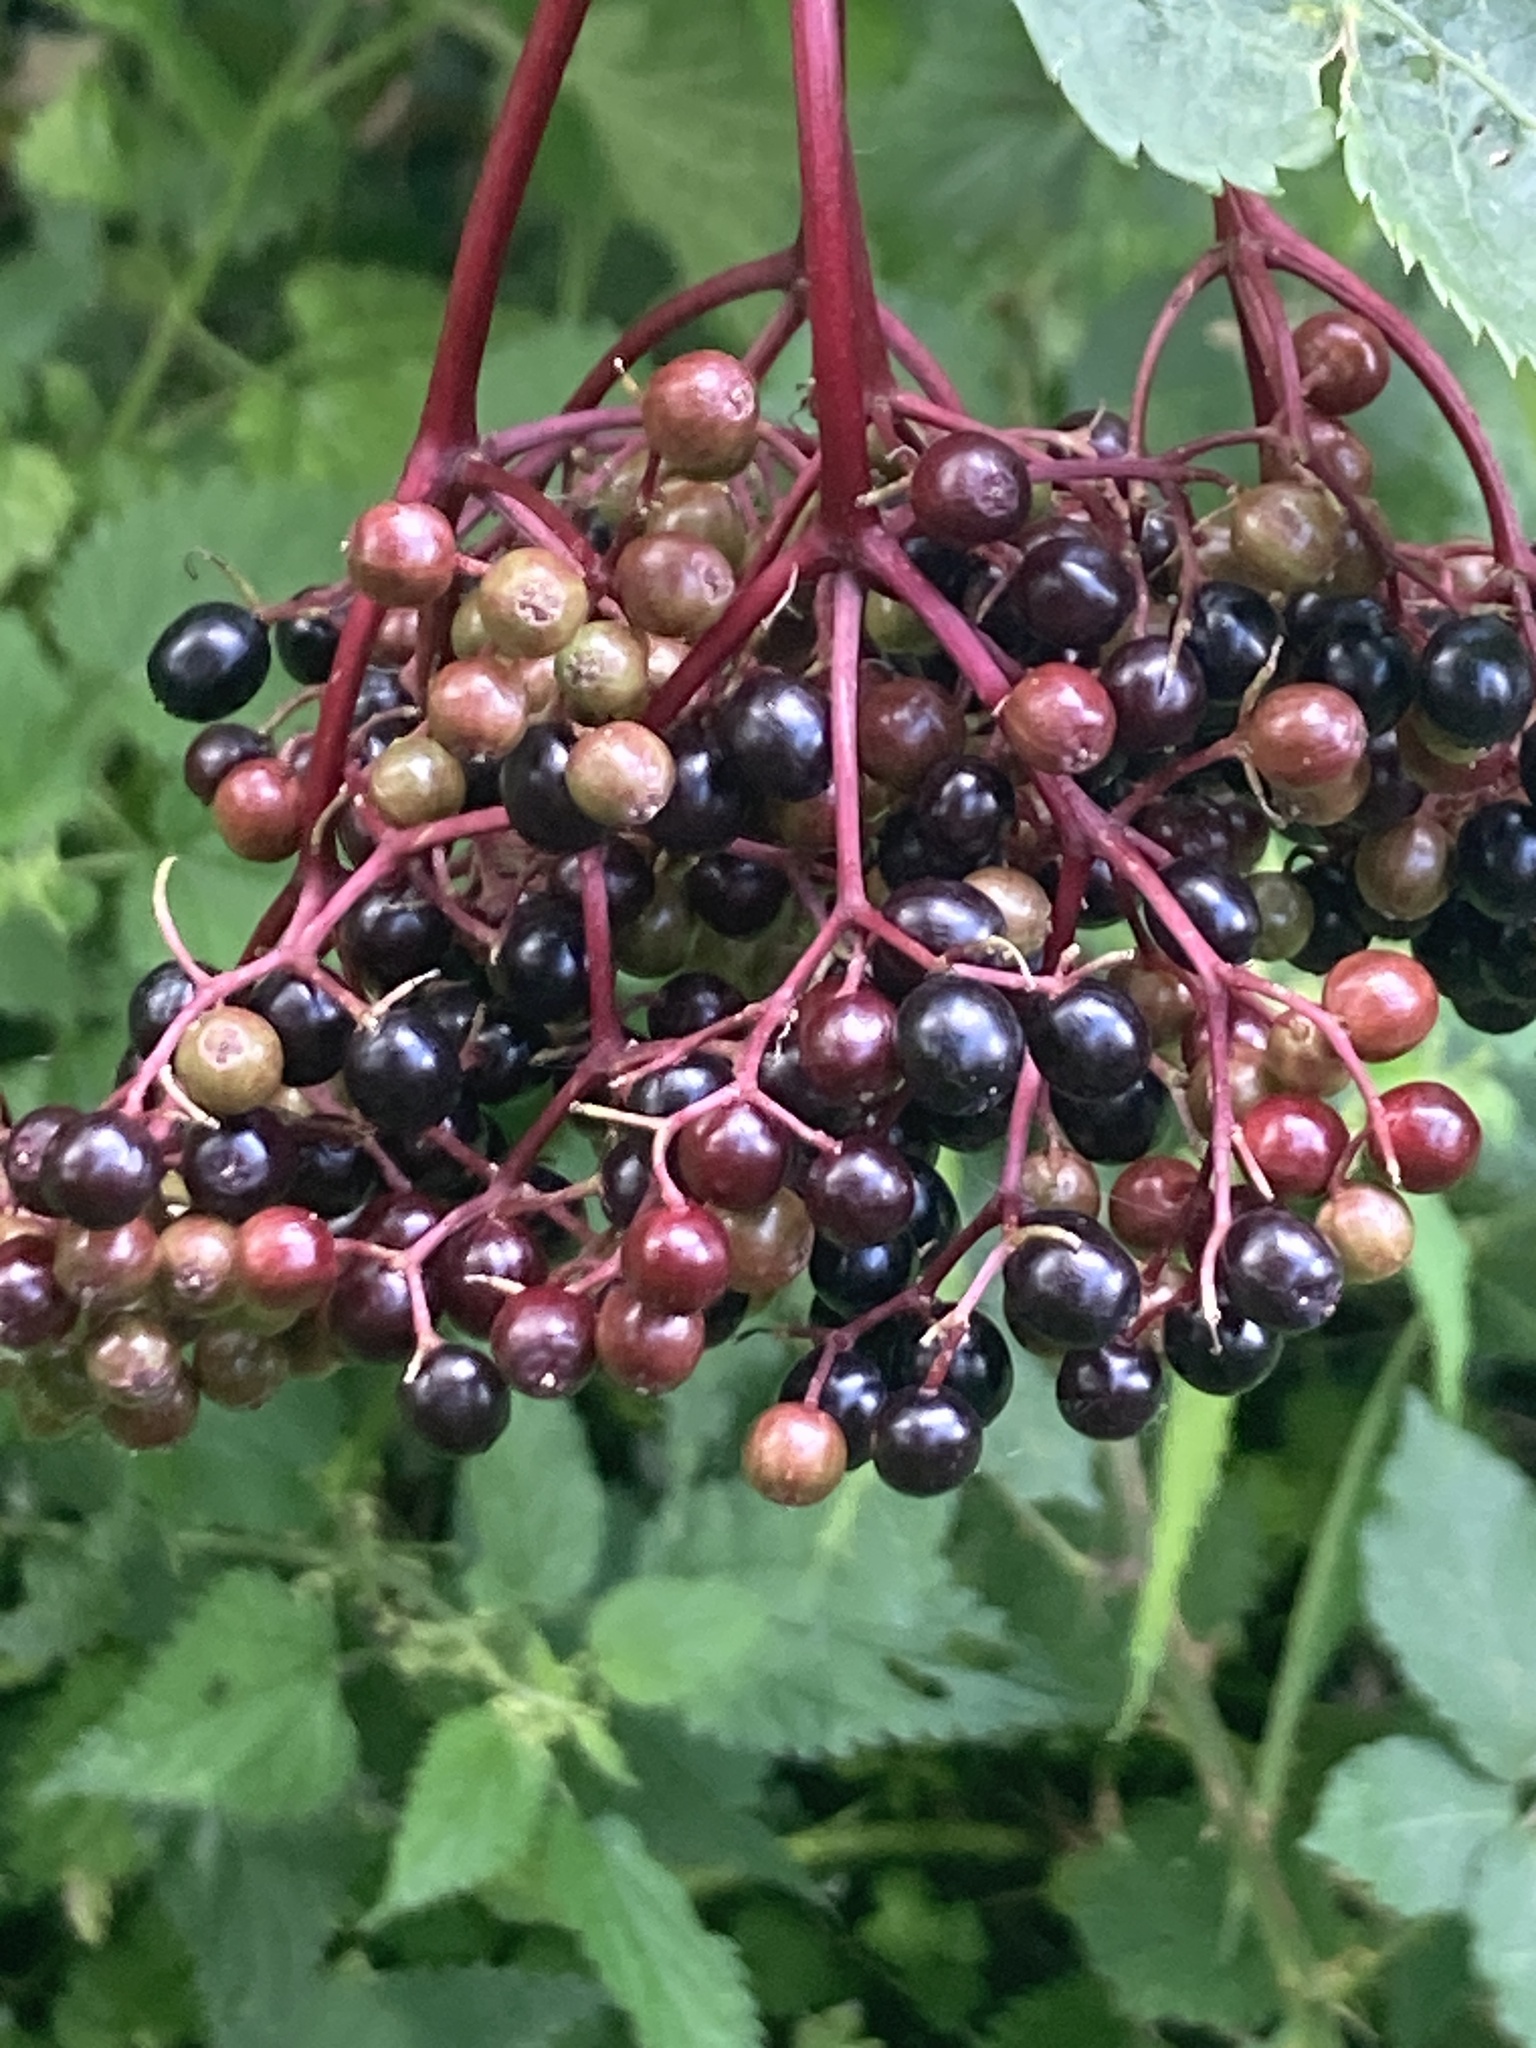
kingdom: Plantae
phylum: Tracheophyta
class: Magnoliopsida
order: Dipsacales
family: Viburnaceae
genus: Sambucus
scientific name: Sambucus nigra
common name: Elder
